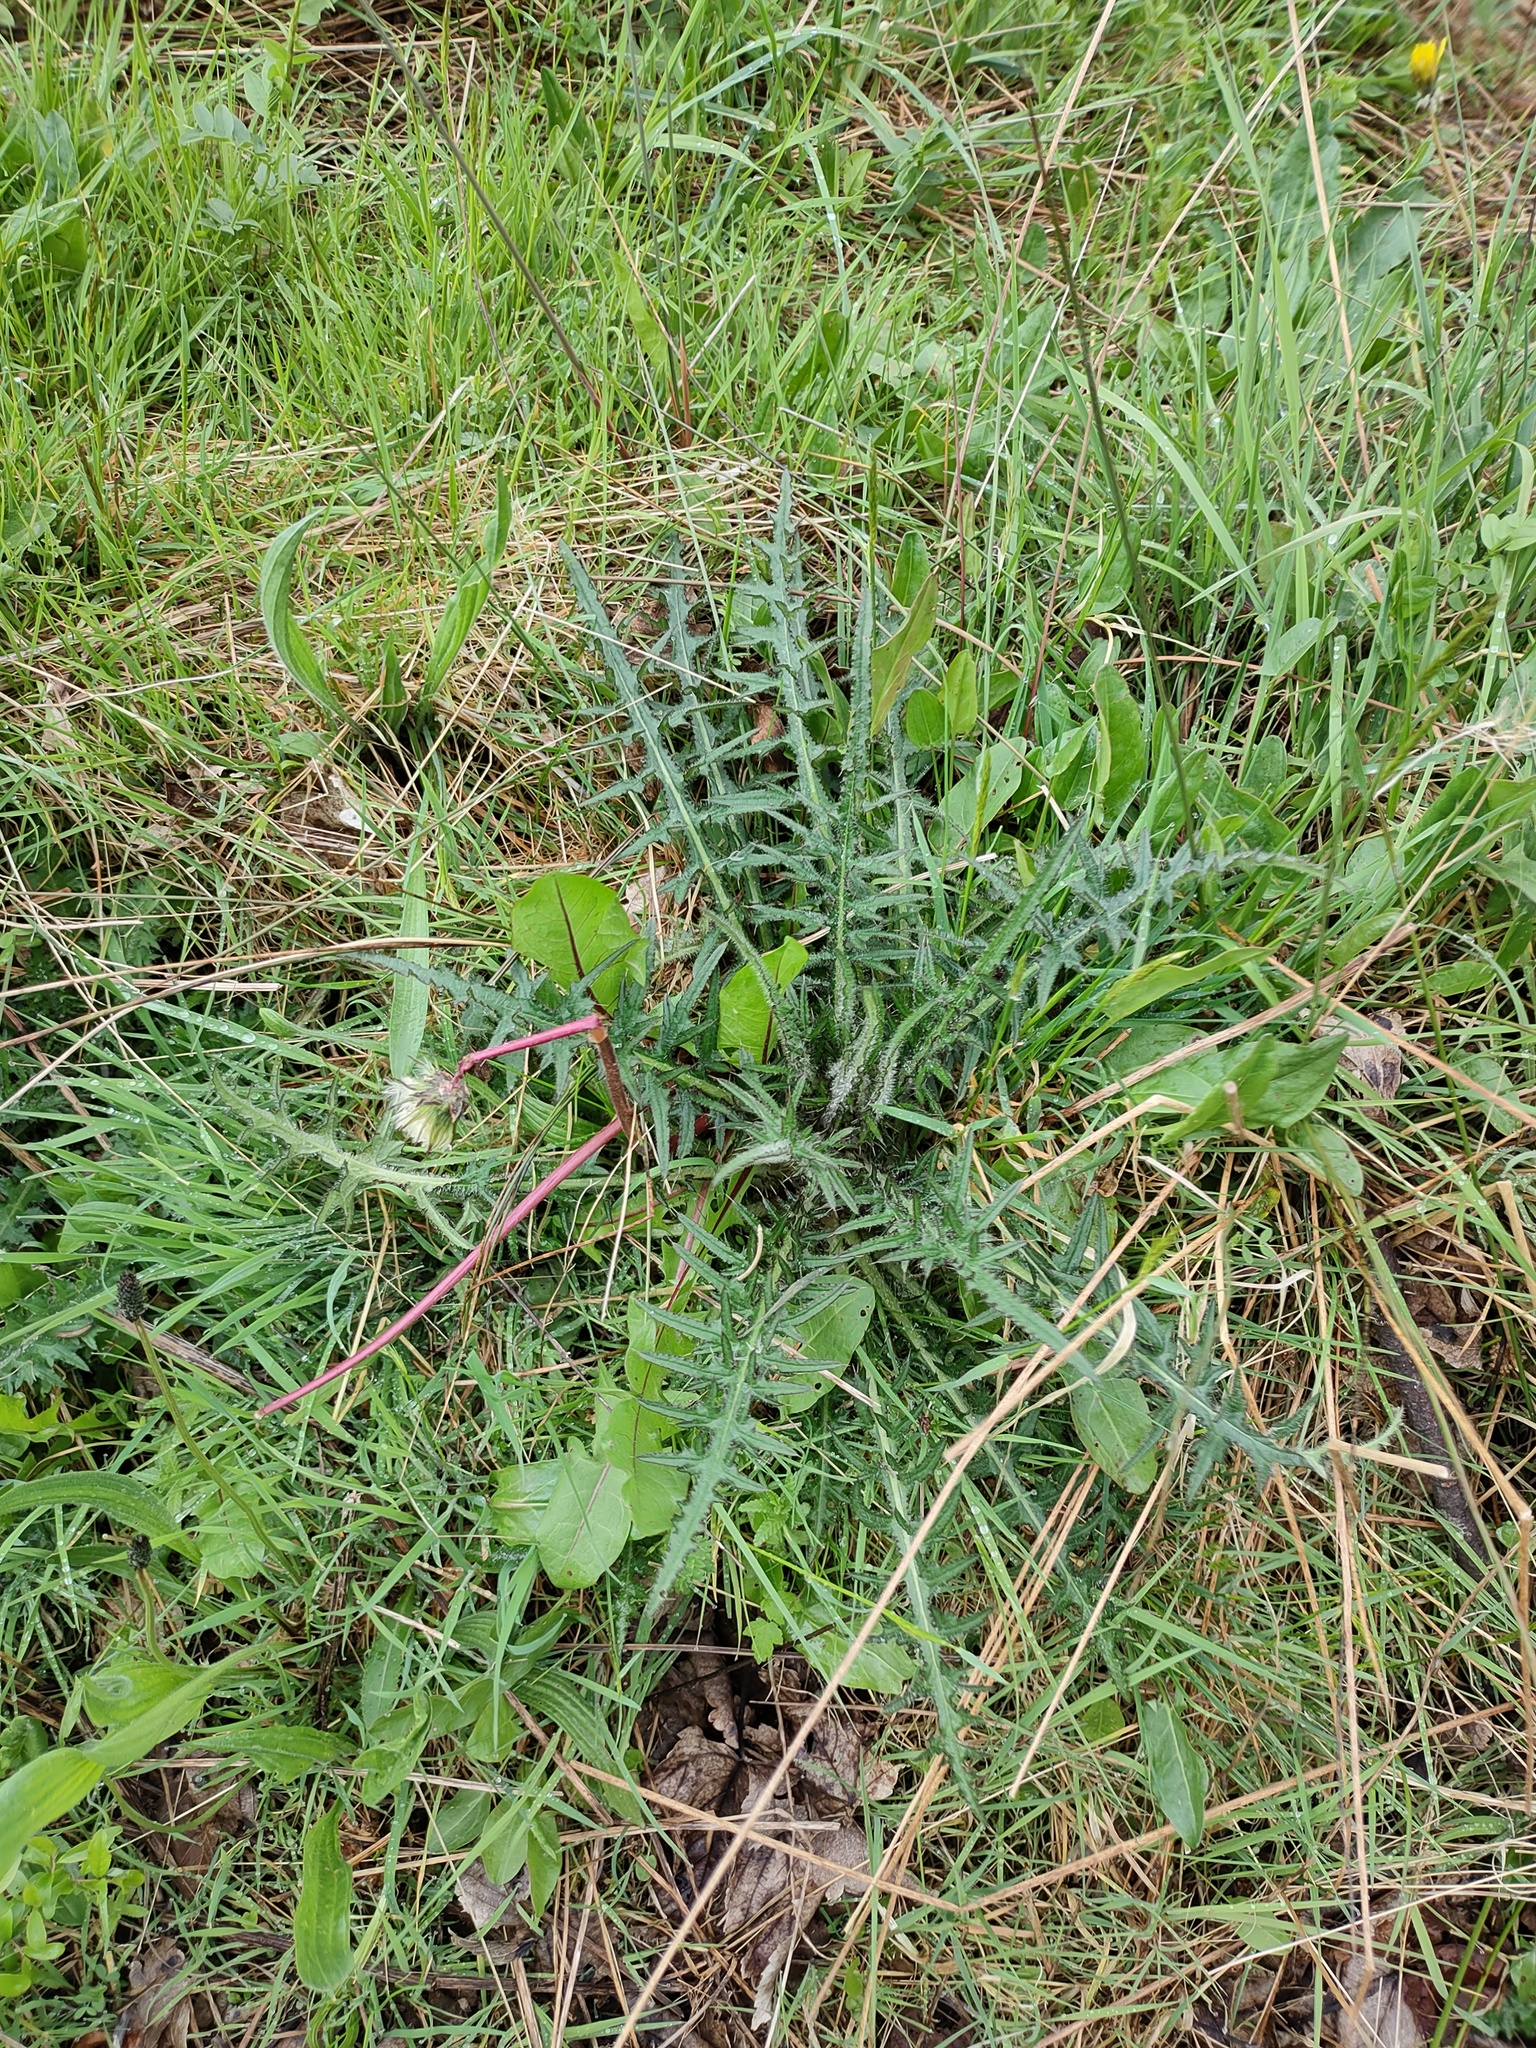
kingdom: Plantae
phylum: Tracheophyta
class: Magnoliopsida
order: Asterales
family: Asteraceae
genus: Cirsium
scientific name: Cirsium palustre
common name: Marsh thistle
